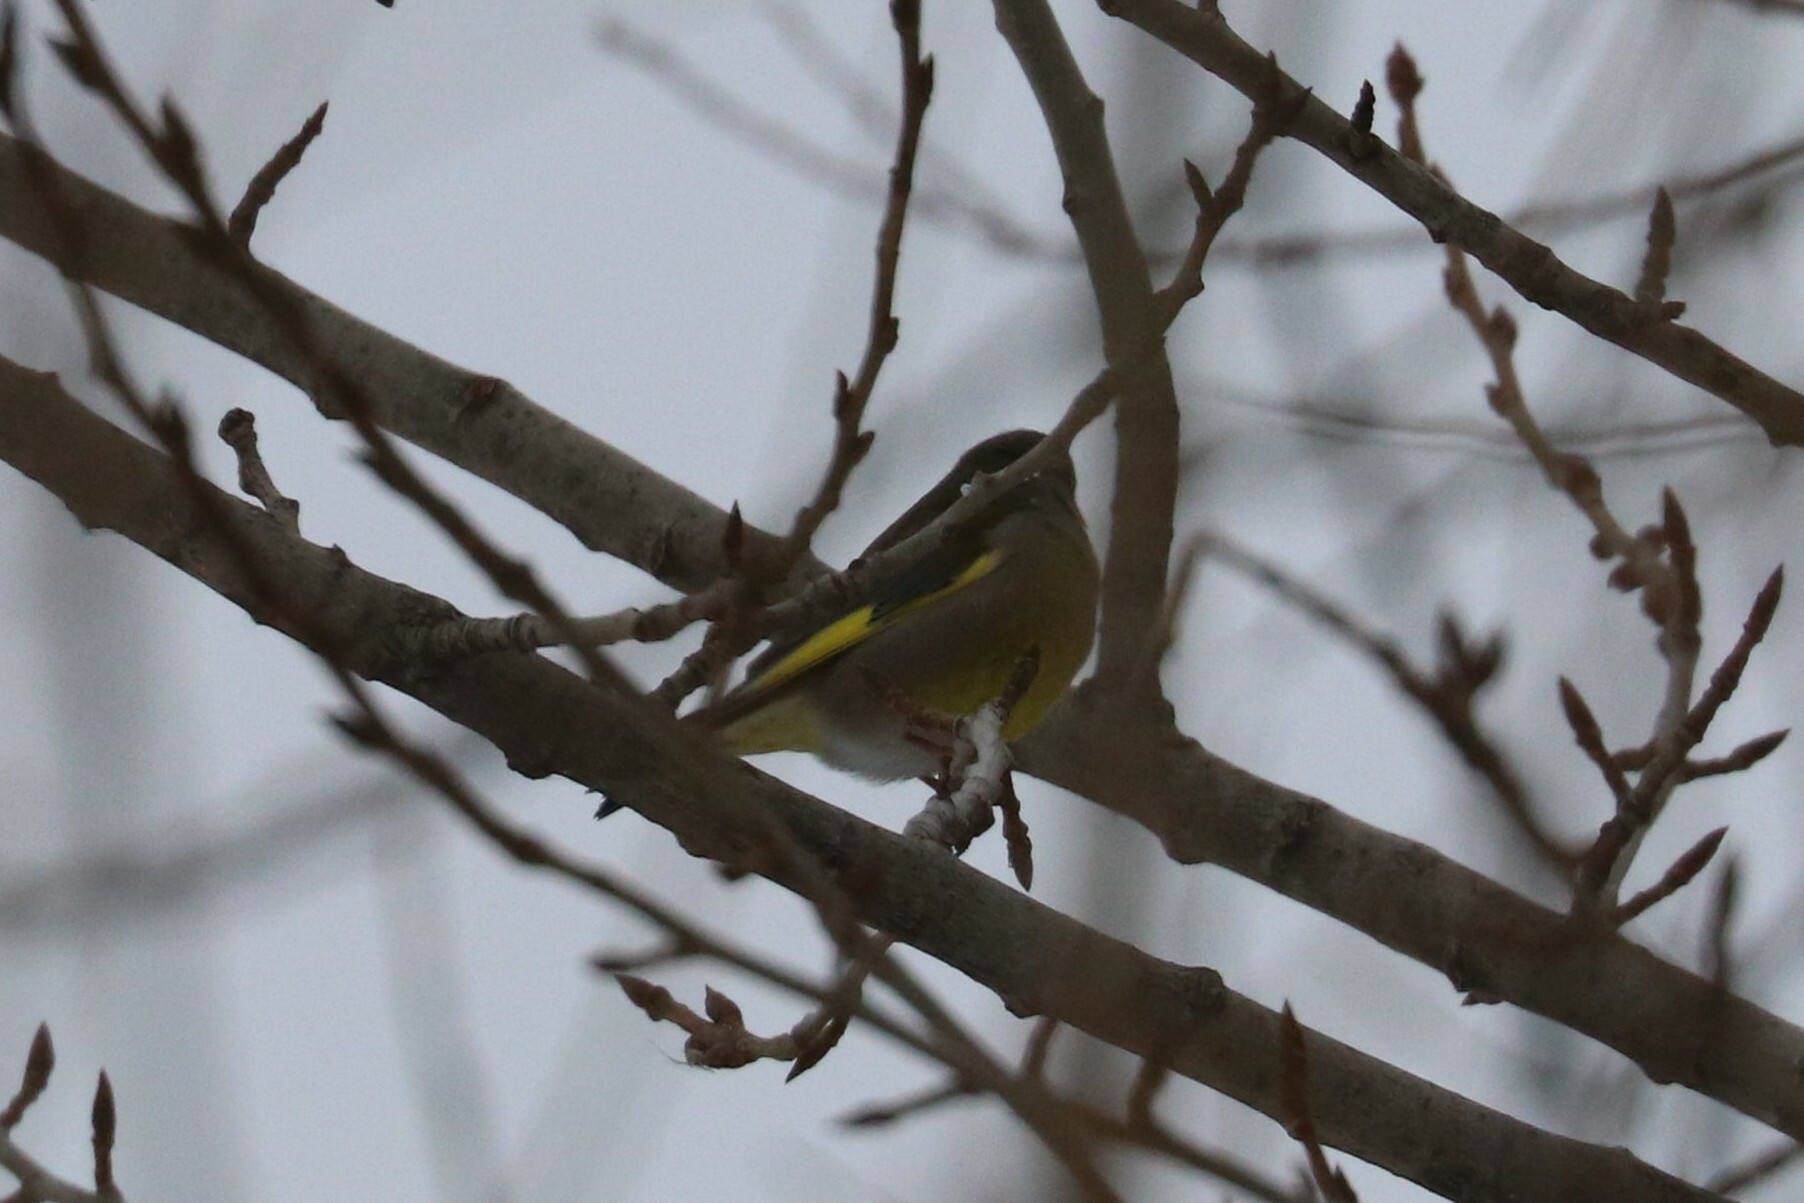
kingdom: Plantae
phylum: Tracheophyta
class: Liliopsida
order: Poales
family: Poaceae
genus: Chloris
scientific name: Chloris chloris
